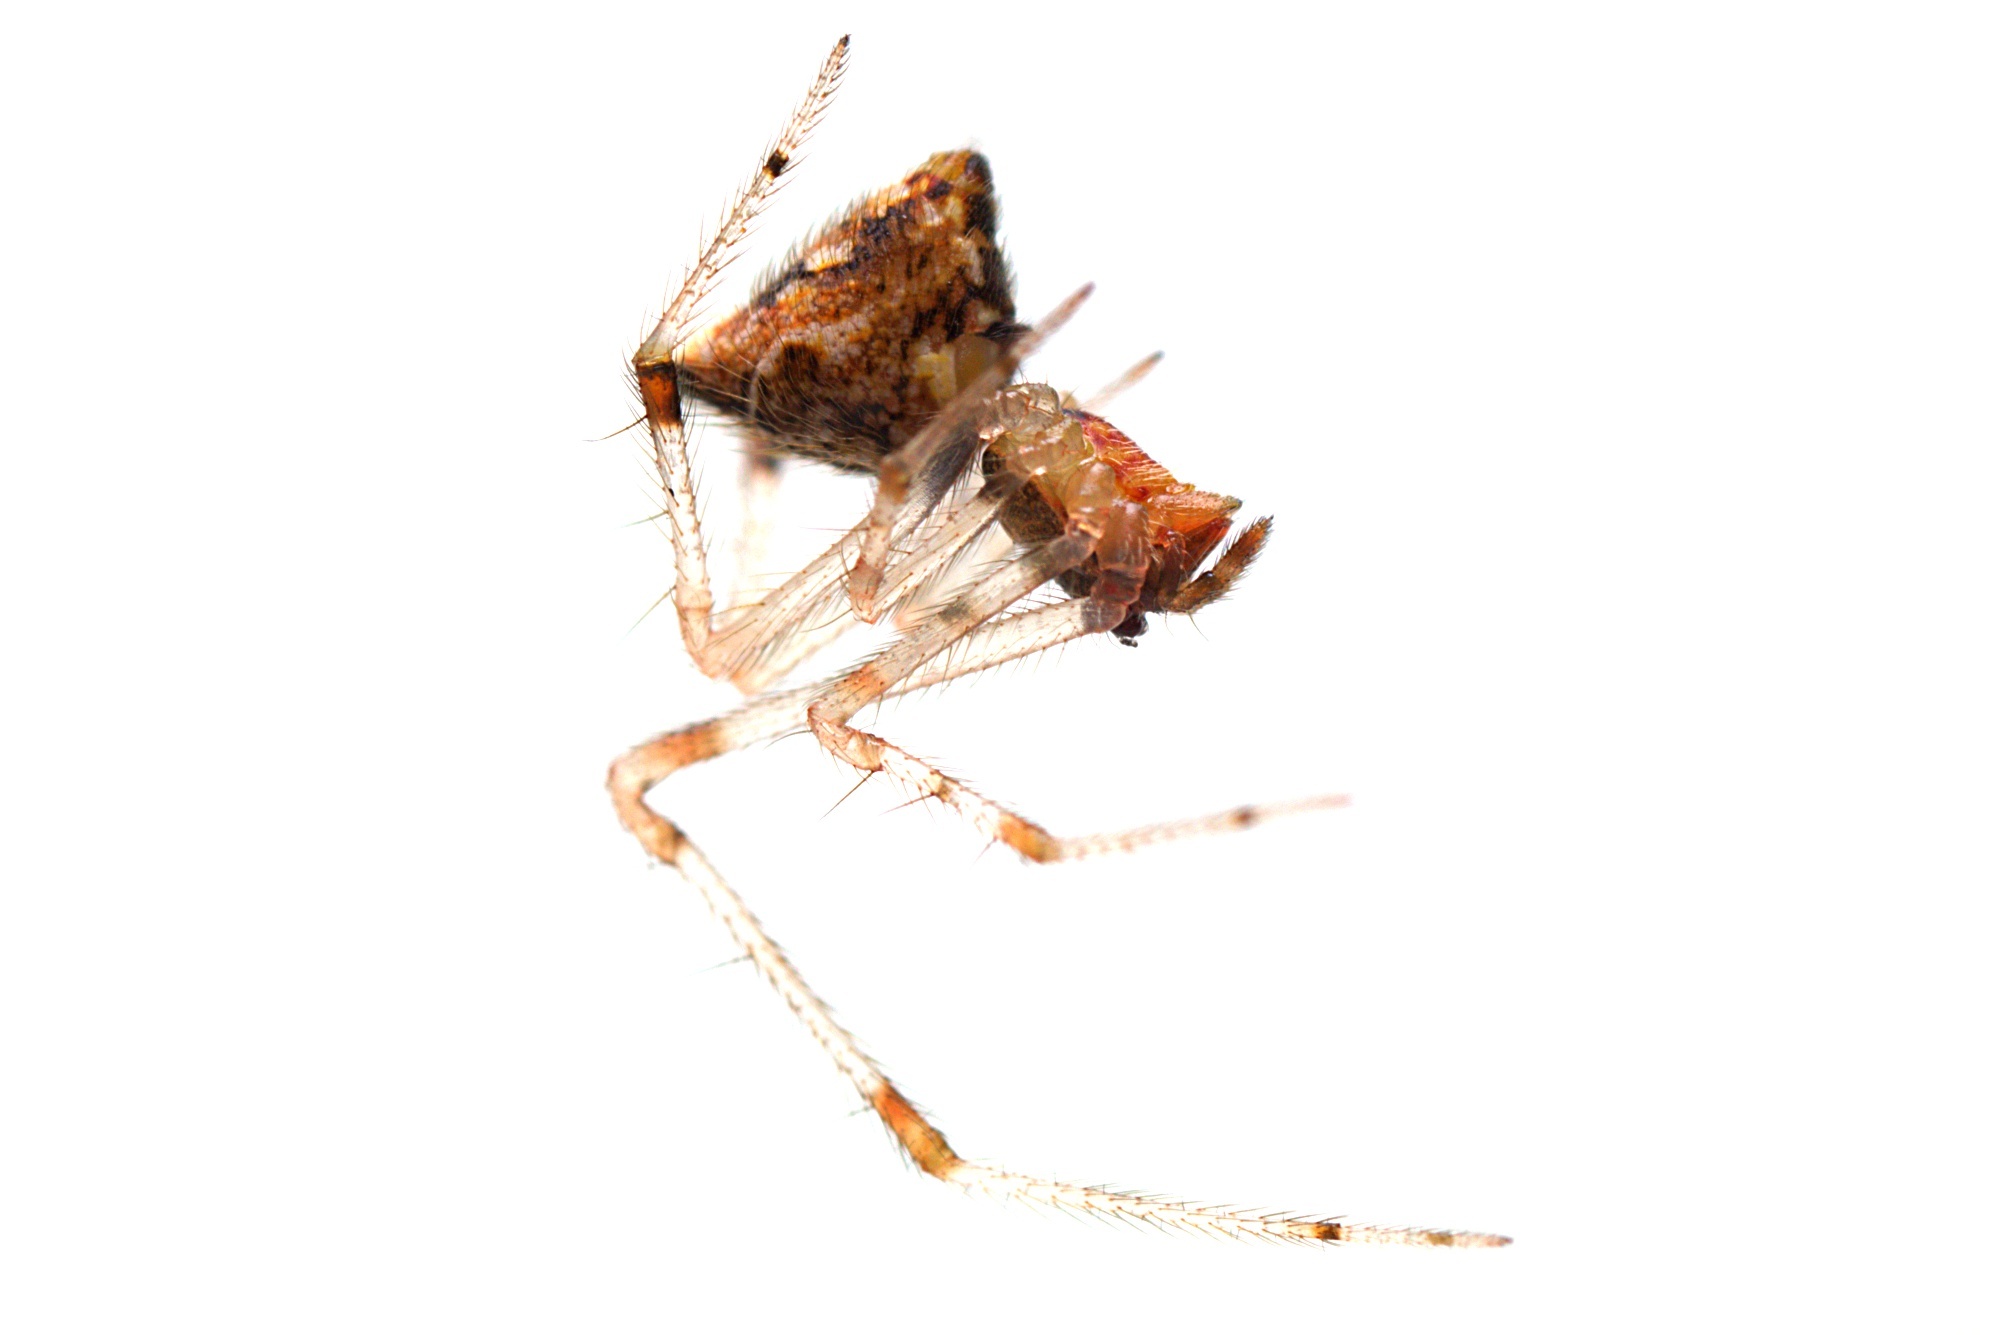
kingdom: Animalia
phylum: Arthropoda
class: Arachnida
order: Araneae
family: Theridiidae
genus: Cryptachaea
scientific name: Cryptachaea meraukensis
